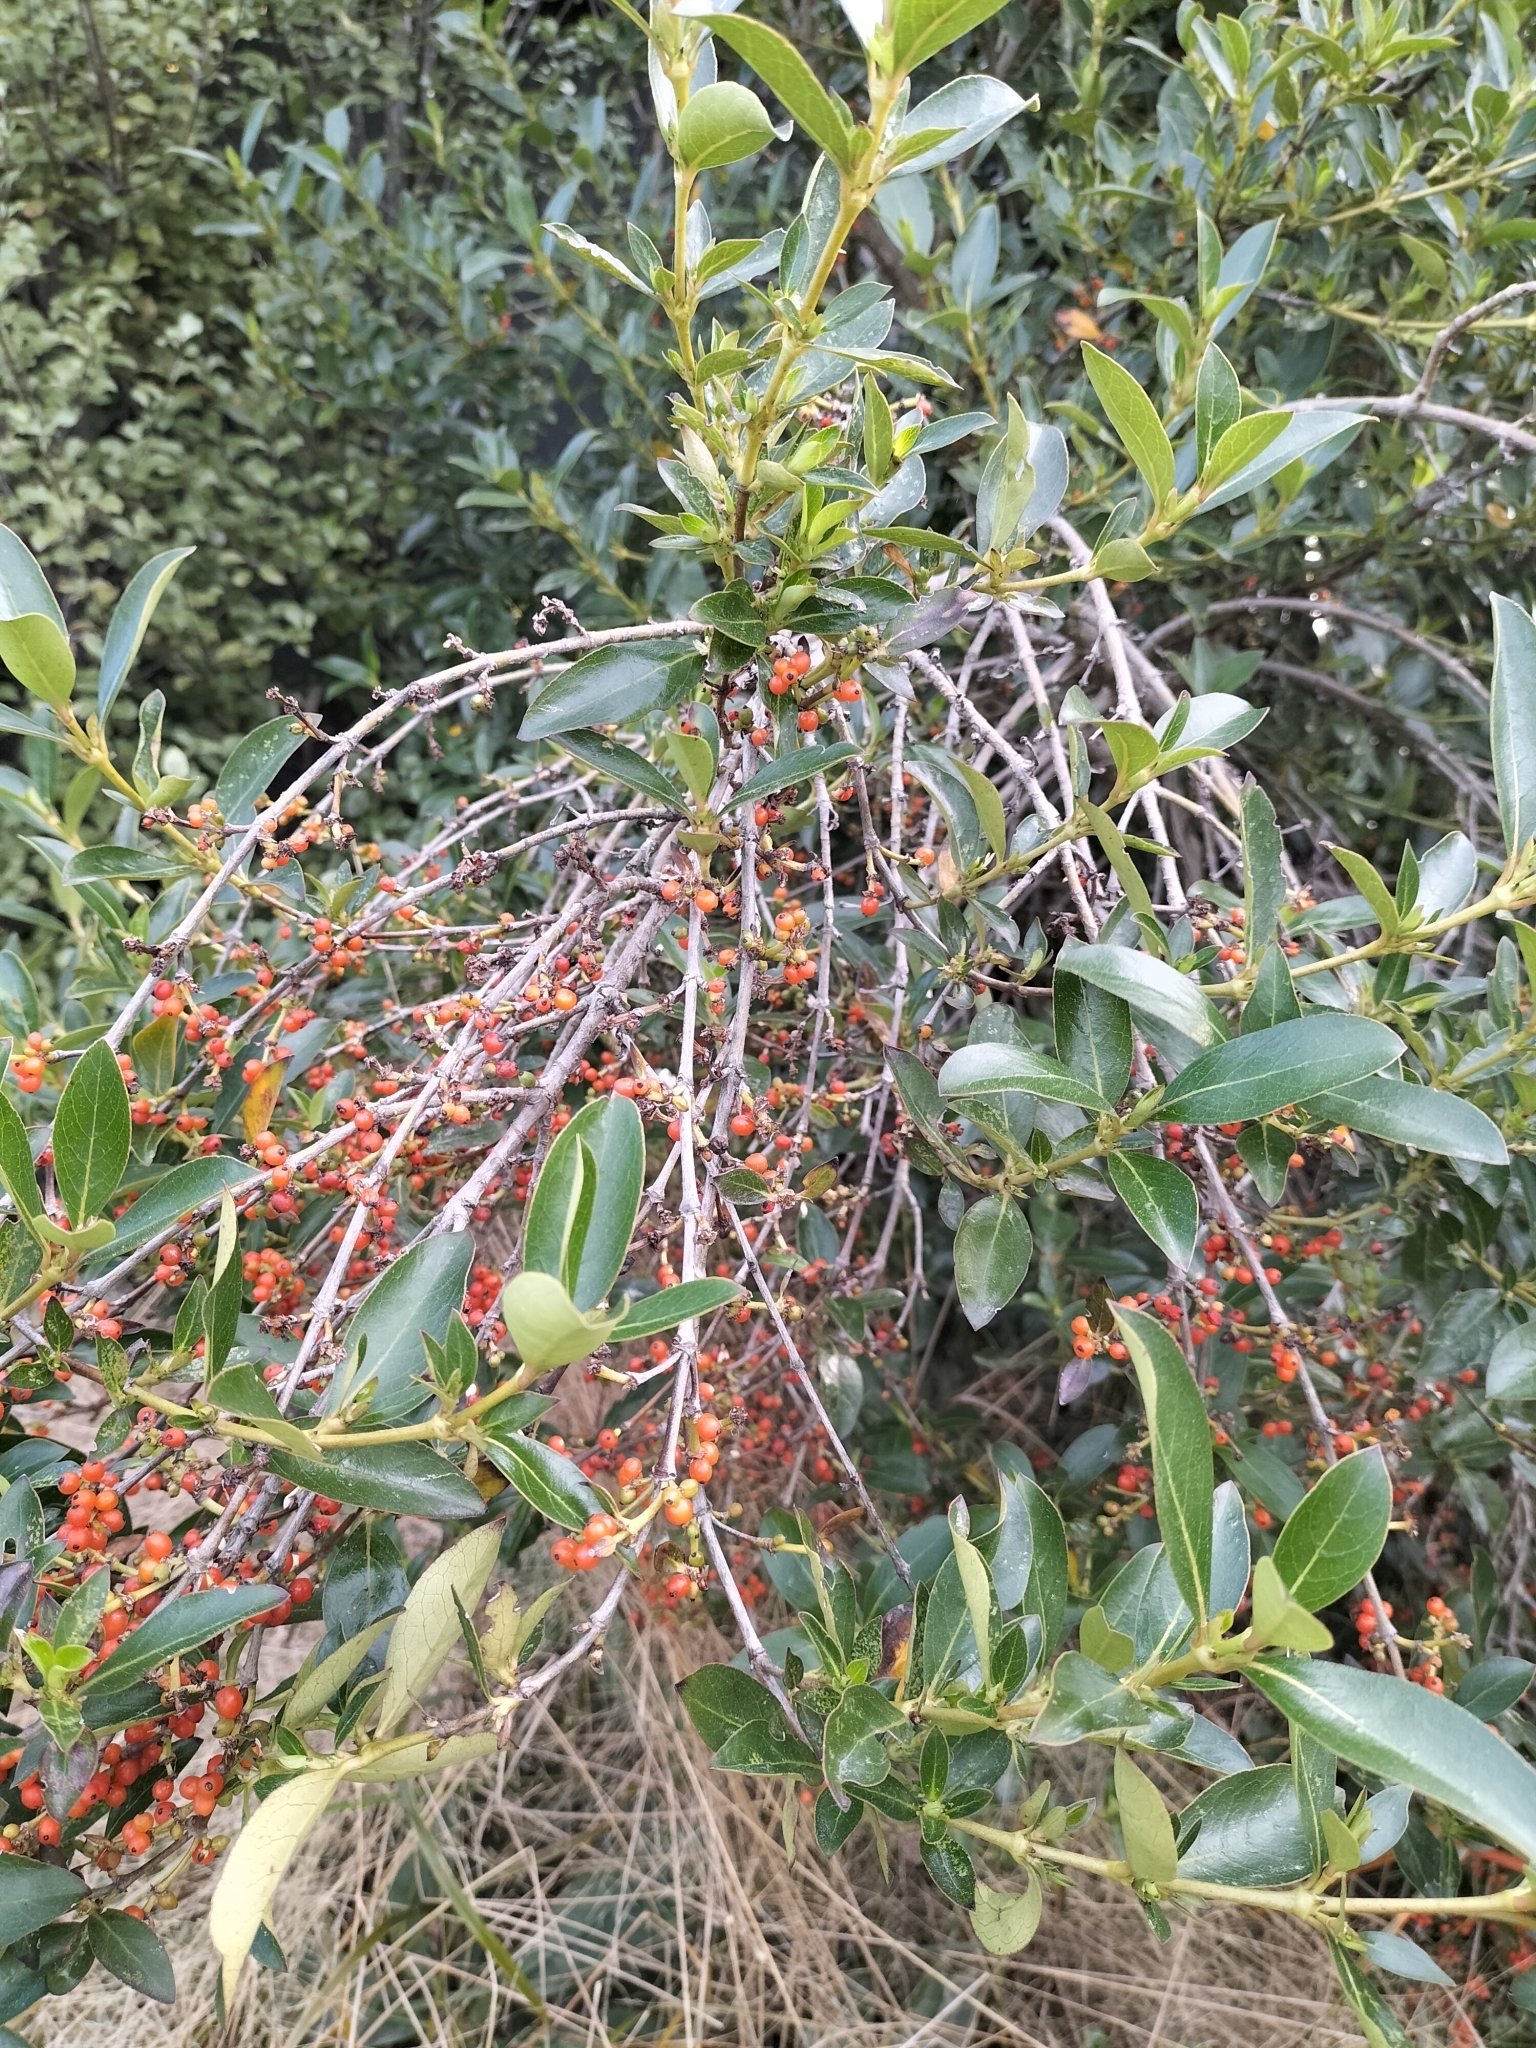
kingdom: Plantae
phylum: Tracheophyta
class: Magnoliopsida
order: Gentianales
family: Rubiaceae
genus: Coprosma
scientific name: Coprosma robusta
